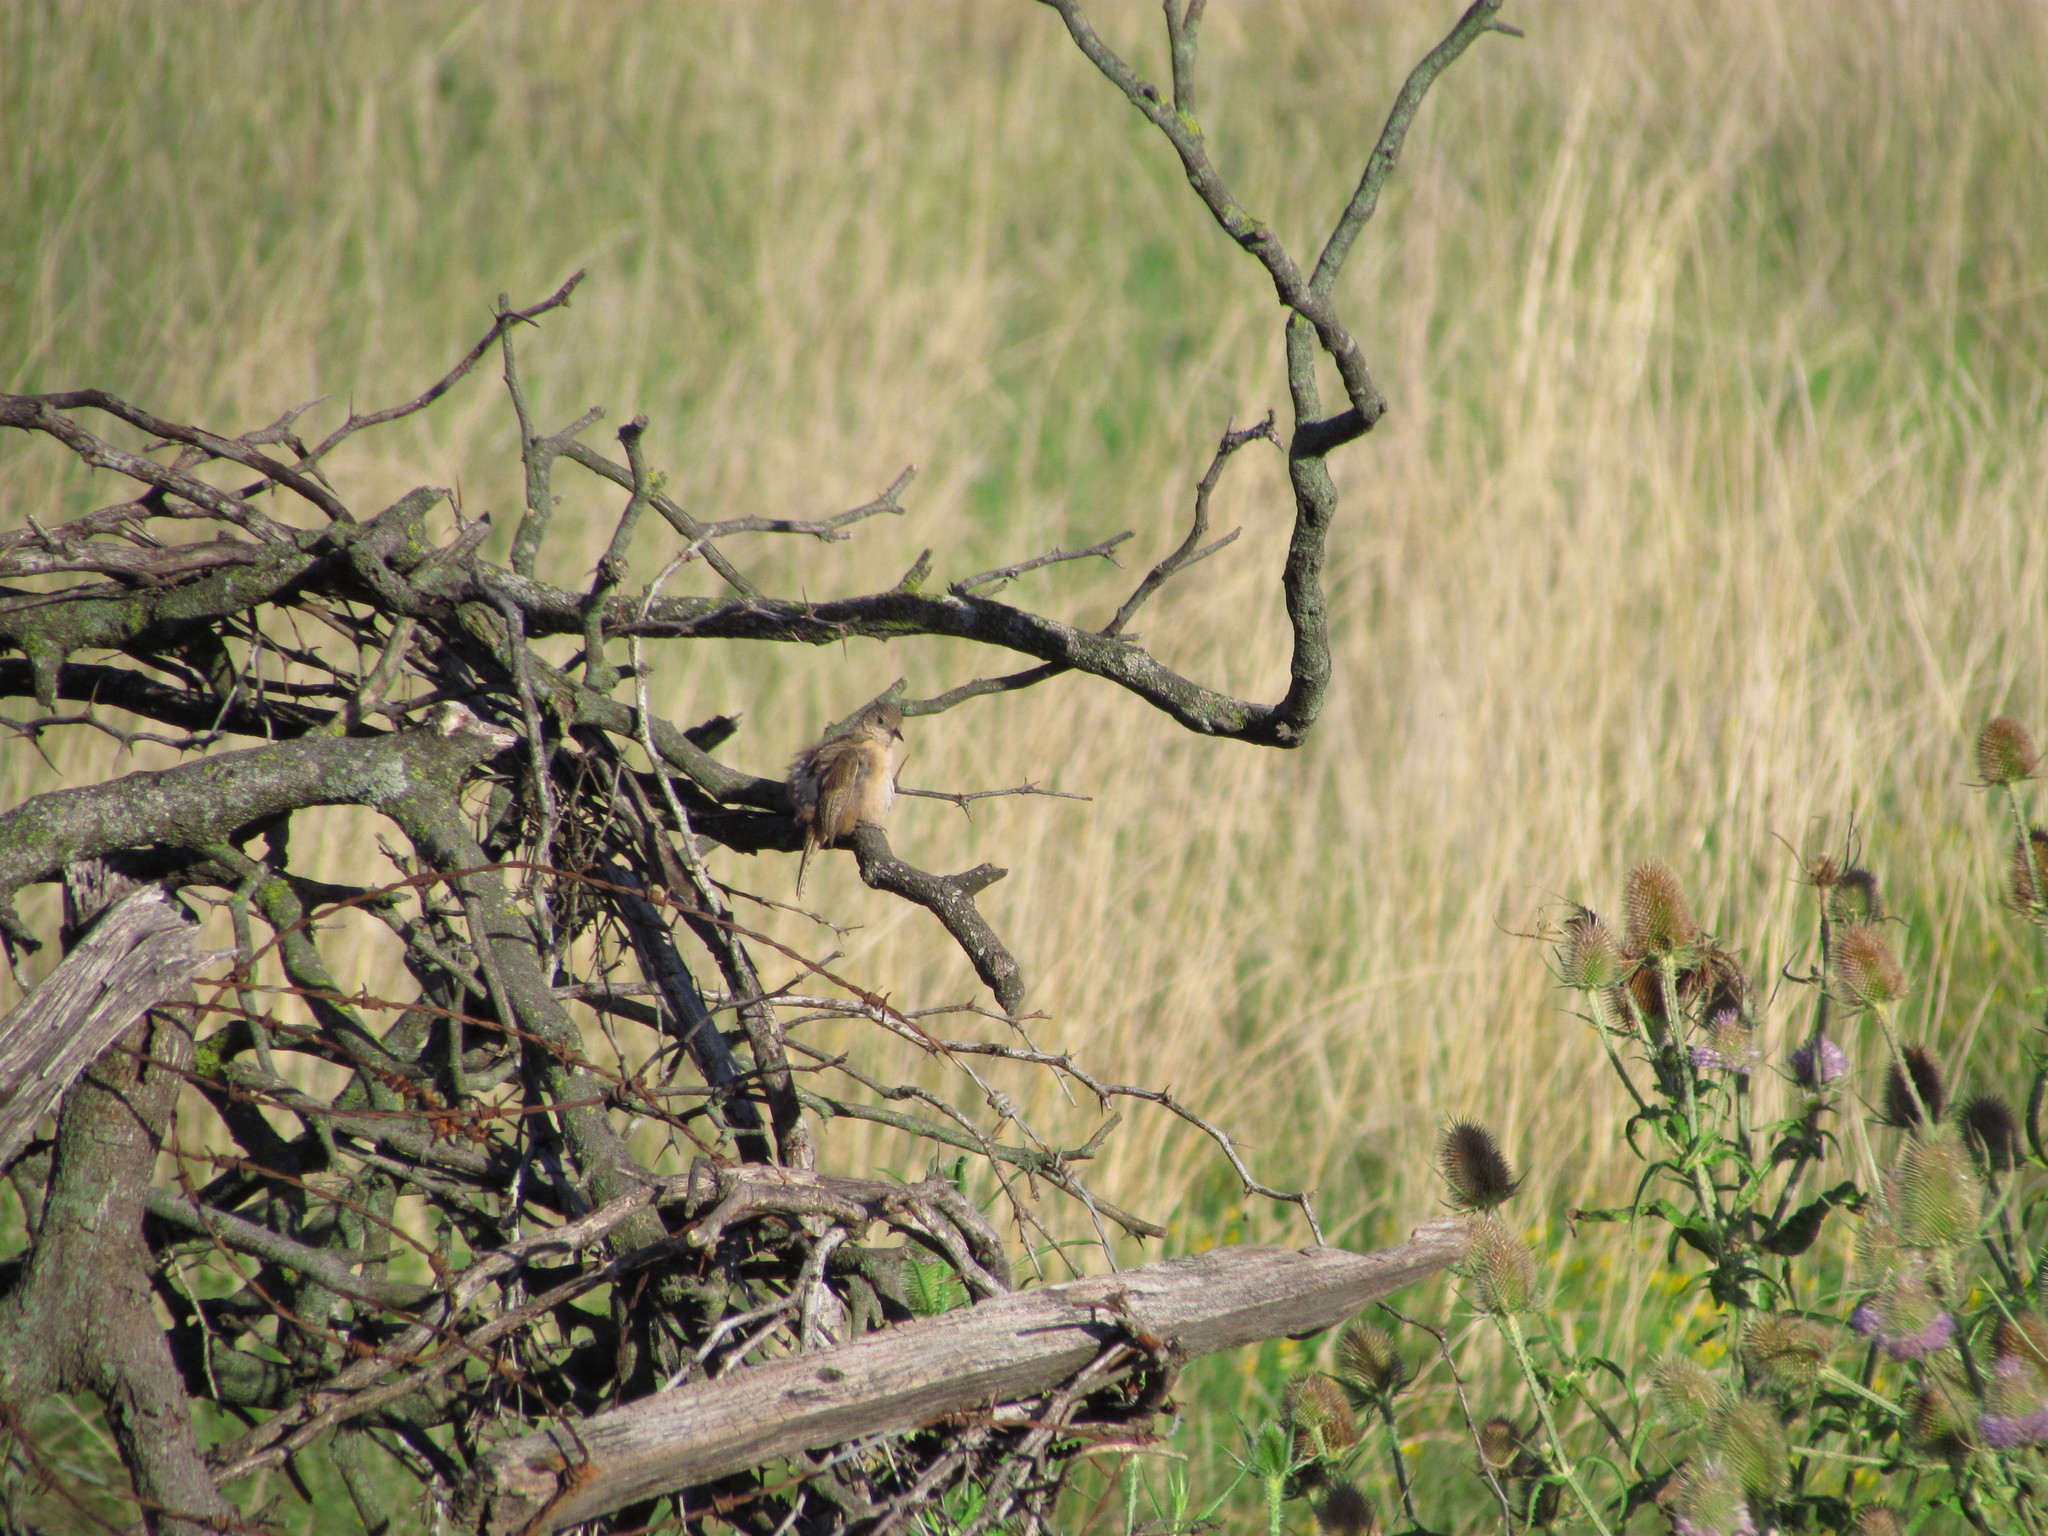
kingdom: Animalia
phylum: Chordata
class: Aves
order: Passeriformes
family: Troglodytidae
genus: Troglodytes
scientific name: Troglodytes aedon
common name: House wren
